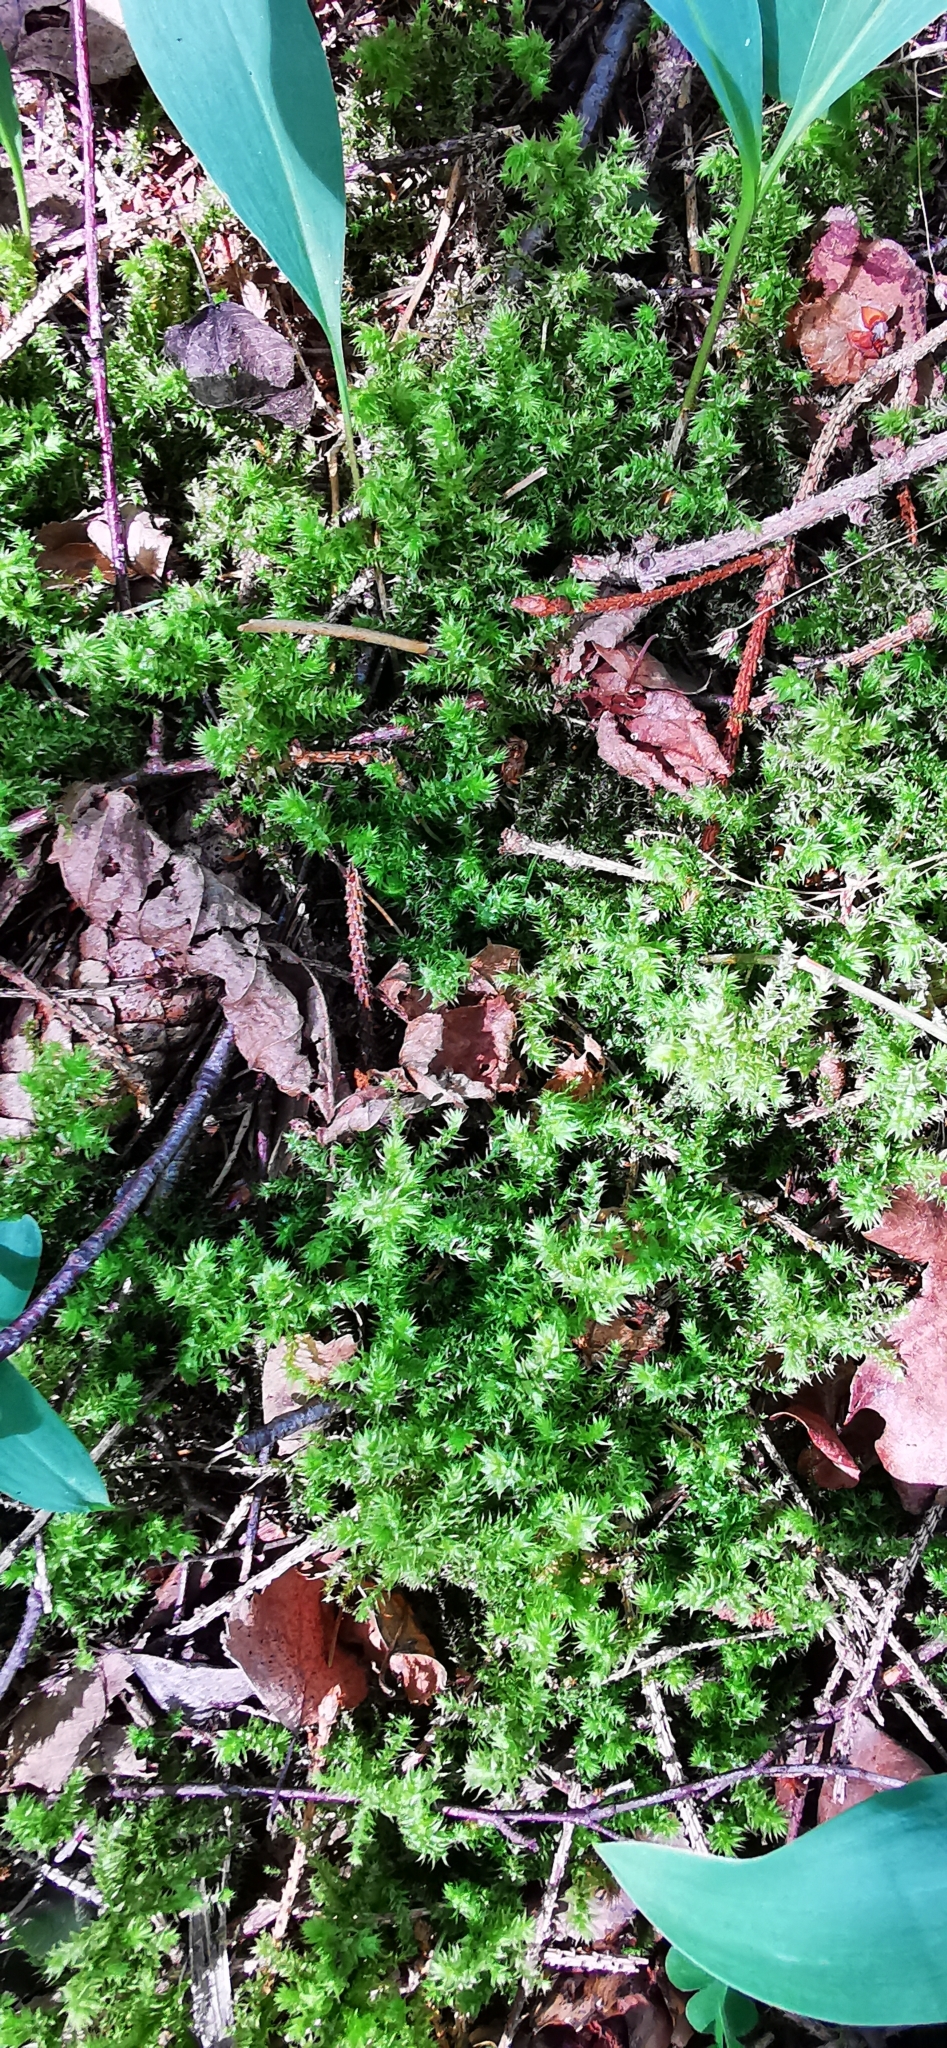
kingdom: Plantae
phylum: Bryophyta
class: Bryopsida
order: Hypnales
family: Hylocomiaceae
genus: Hylocomiadelphus
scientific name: Hylocomiadelphus triquetrus
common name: Rough goose neck moss
